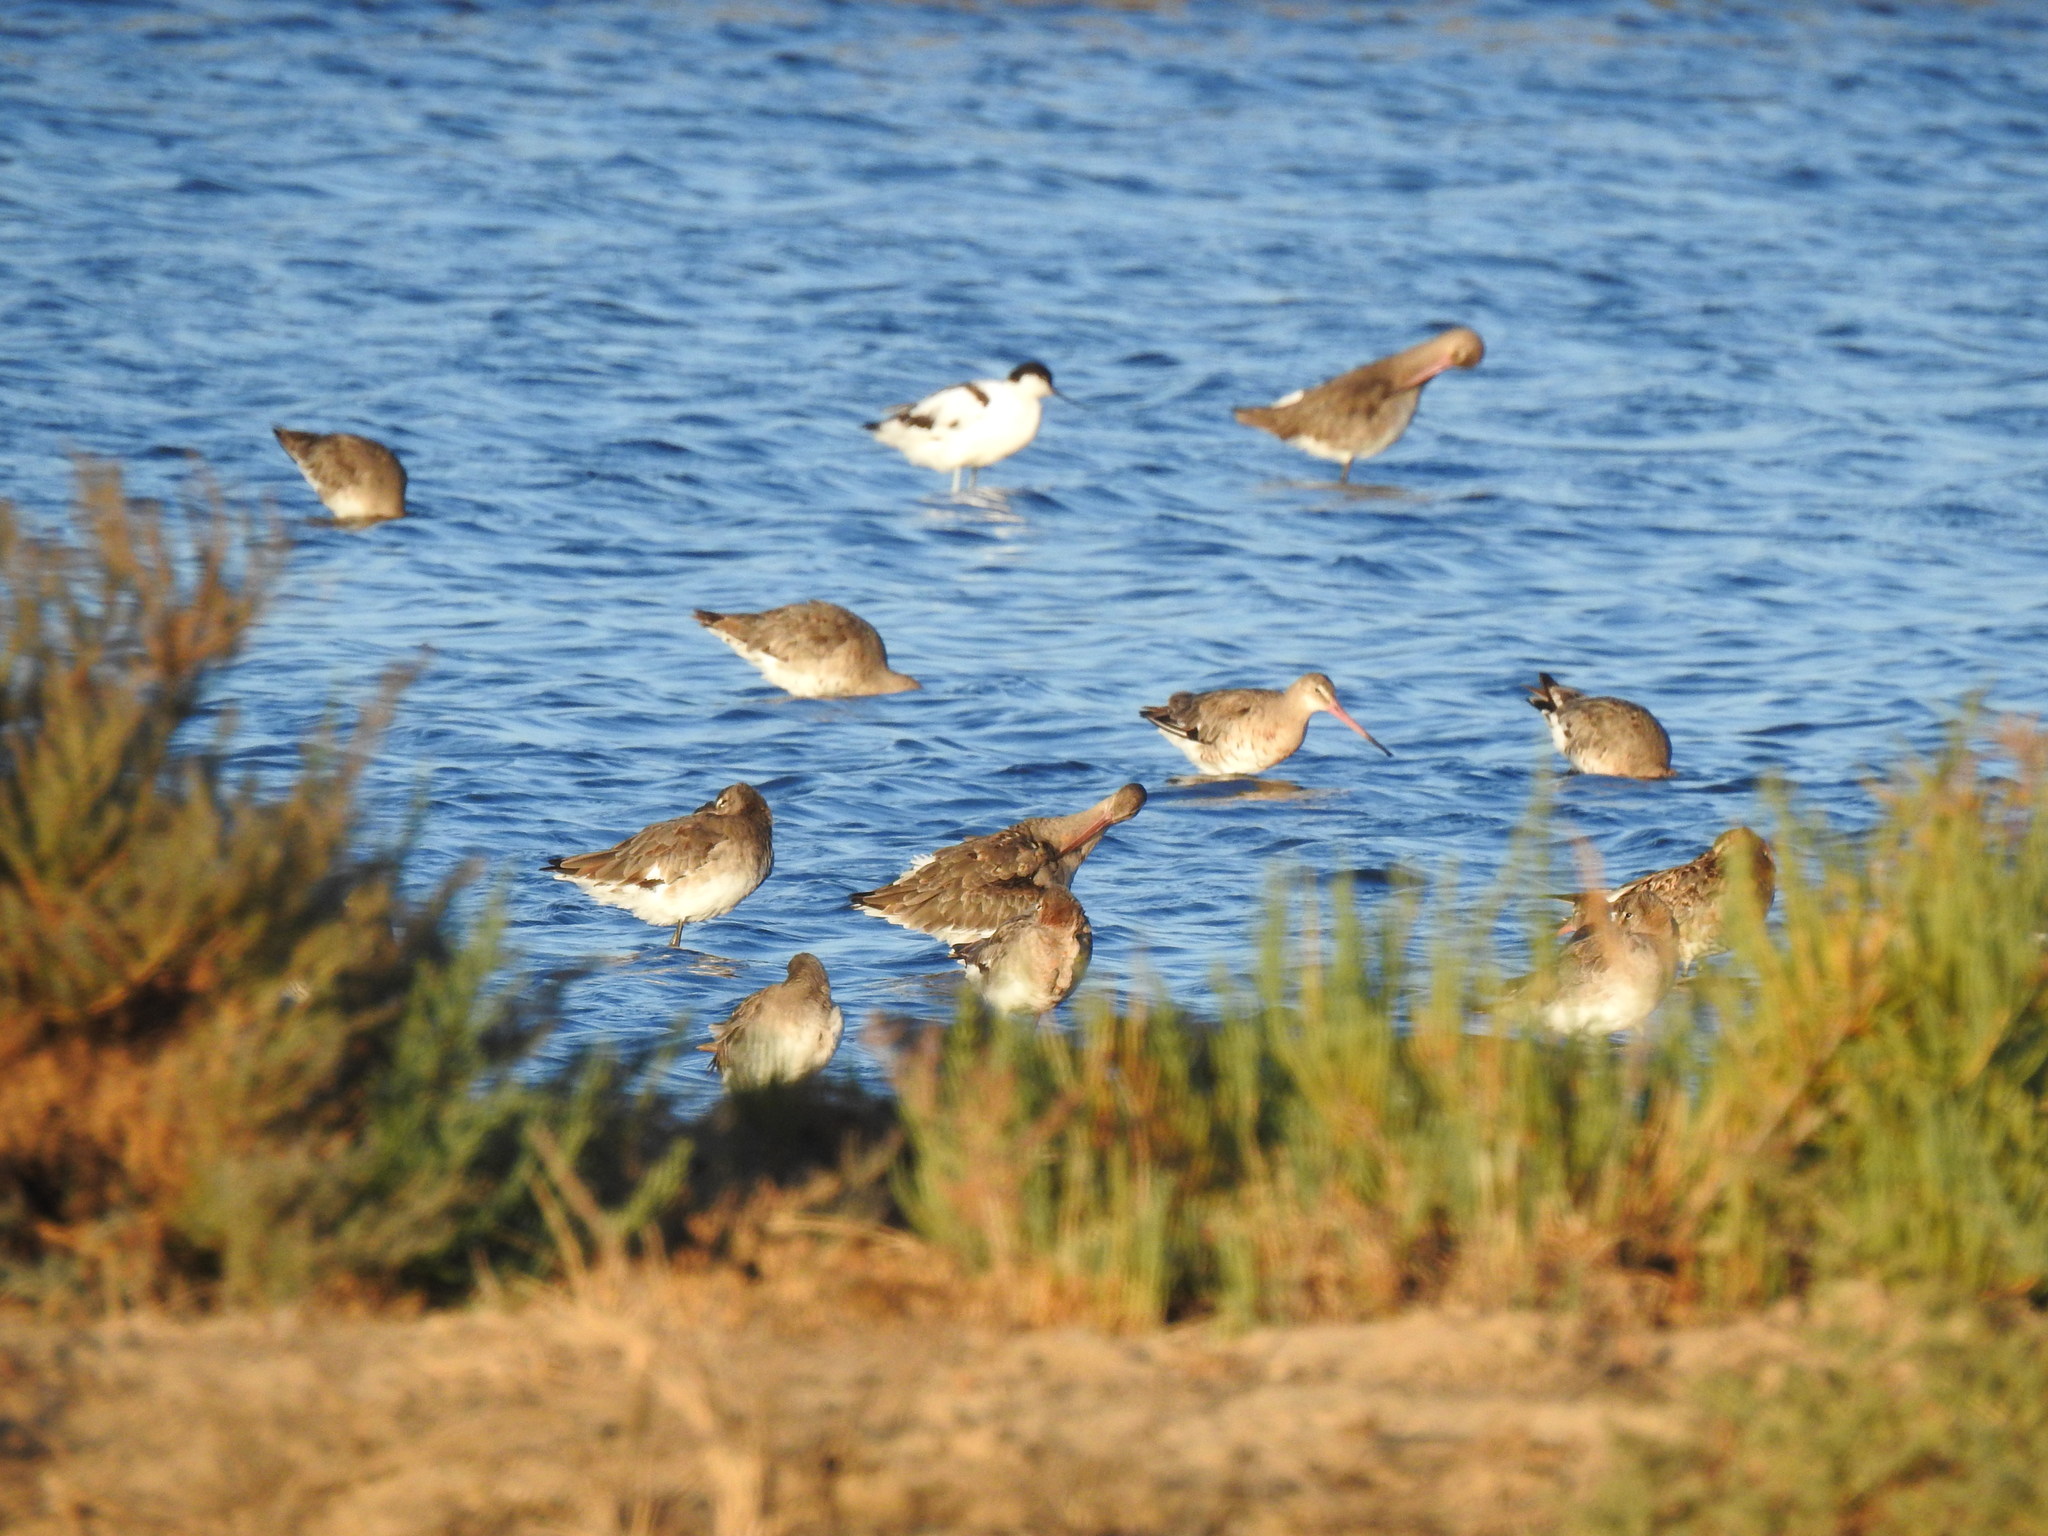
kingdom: Animalia
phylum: Chordata
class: Aves
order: Charadriiformes
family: Scolopacidae
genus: Limosa
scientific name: Limosa limosa
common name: Black-tailed godwit
